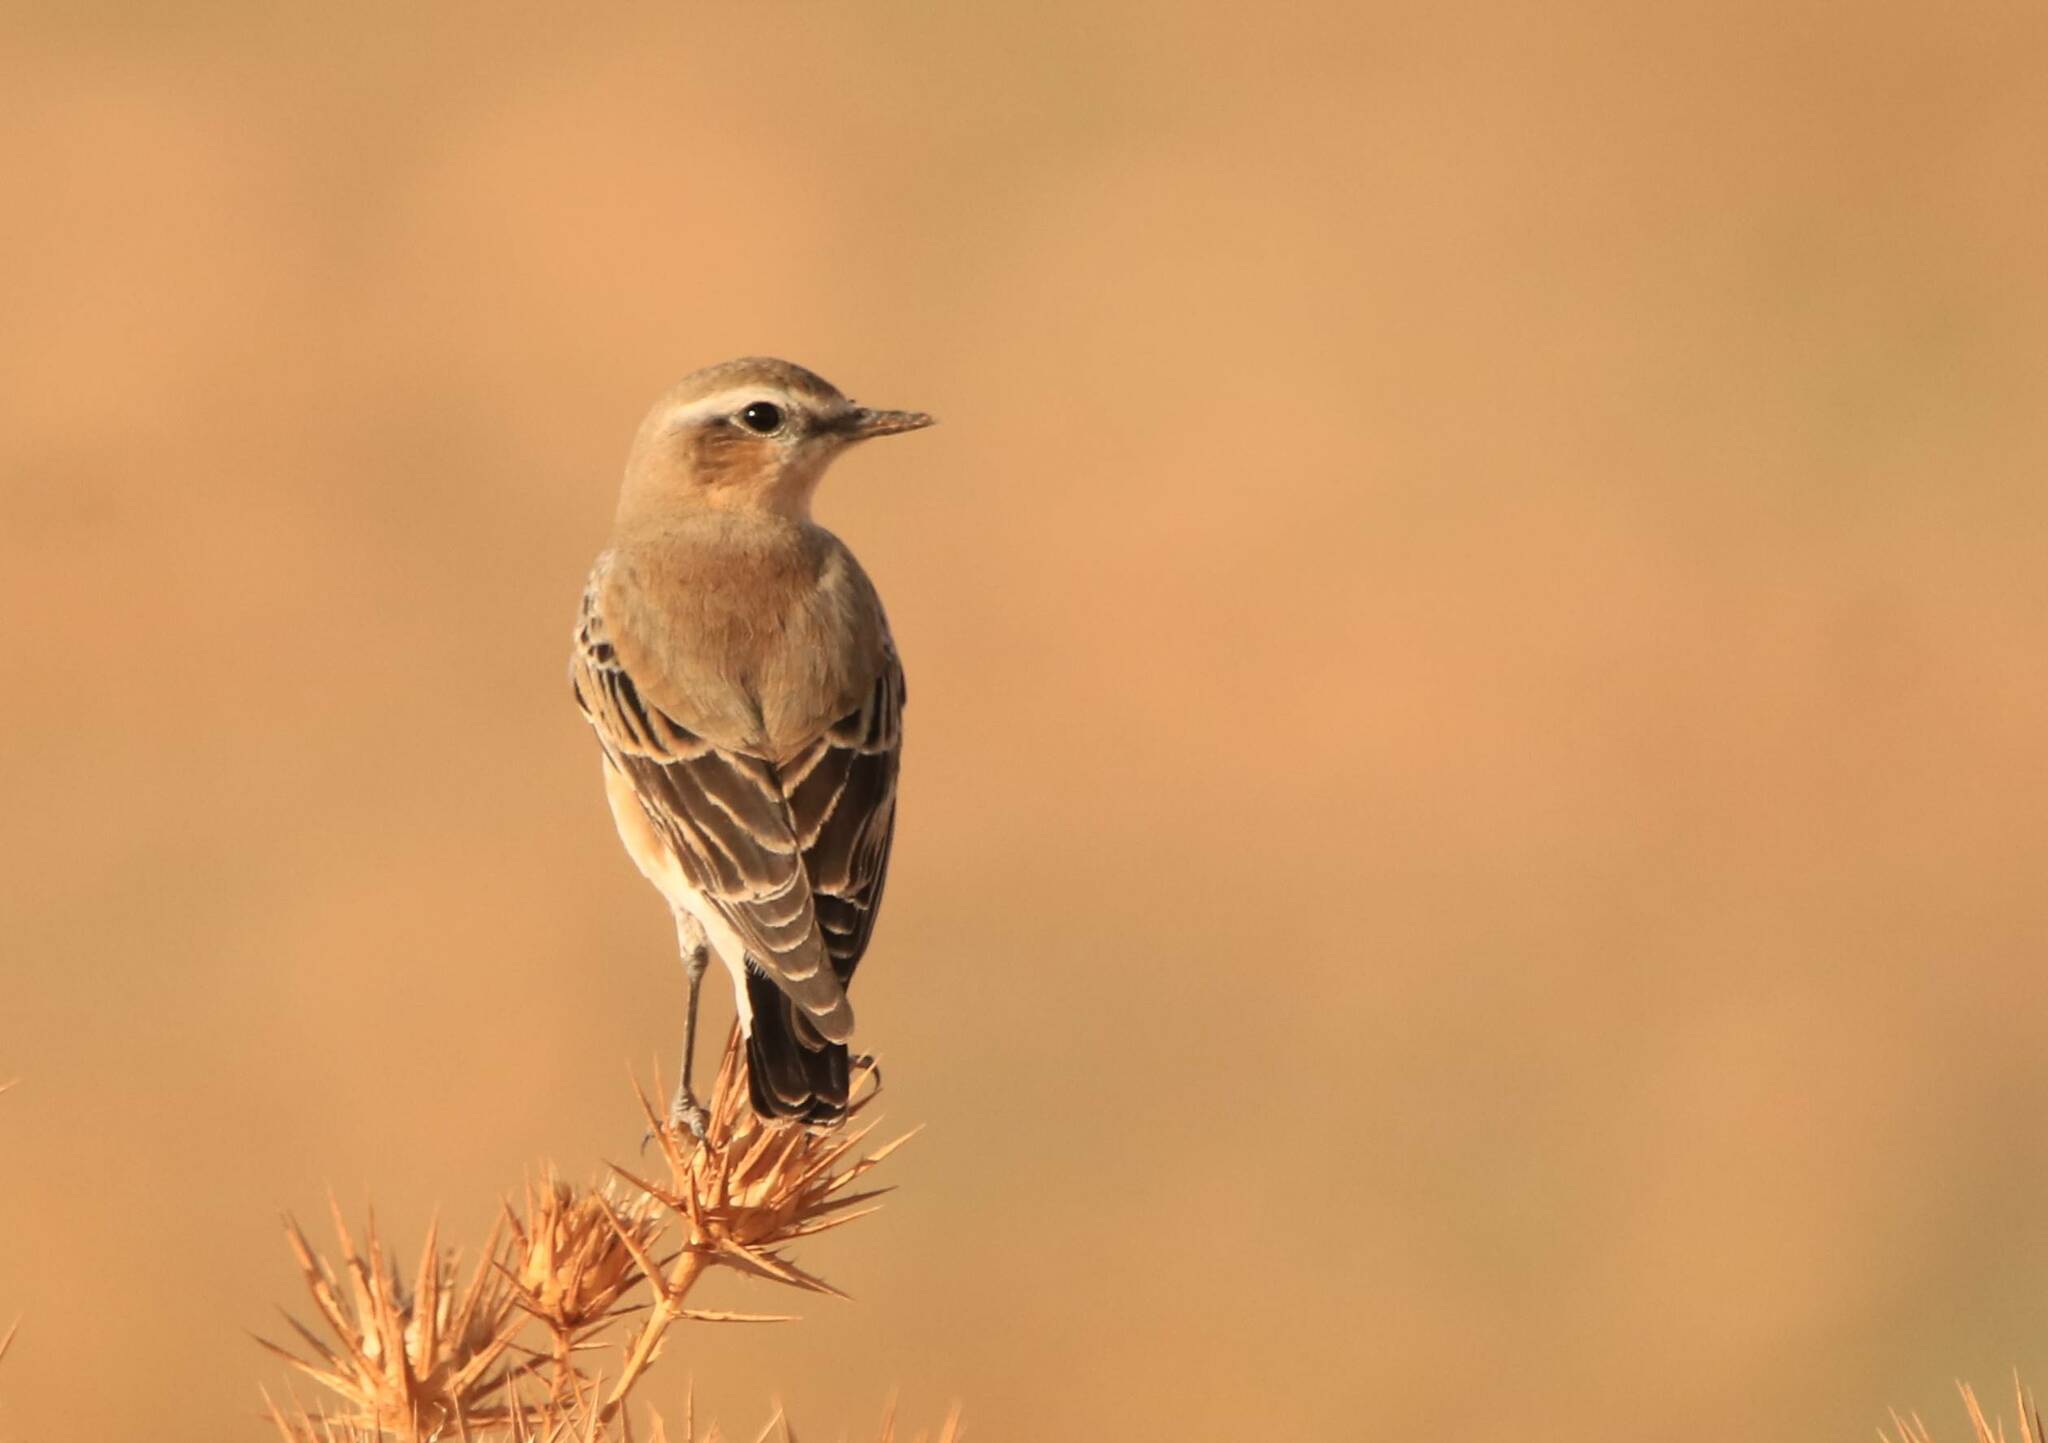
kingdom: Animalia
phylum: Chordata
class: Aves
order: Passeriformes
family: Muscicapidae
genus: Oenanthe
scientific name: Oenanthe oenanthe
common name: Northern wheatear
